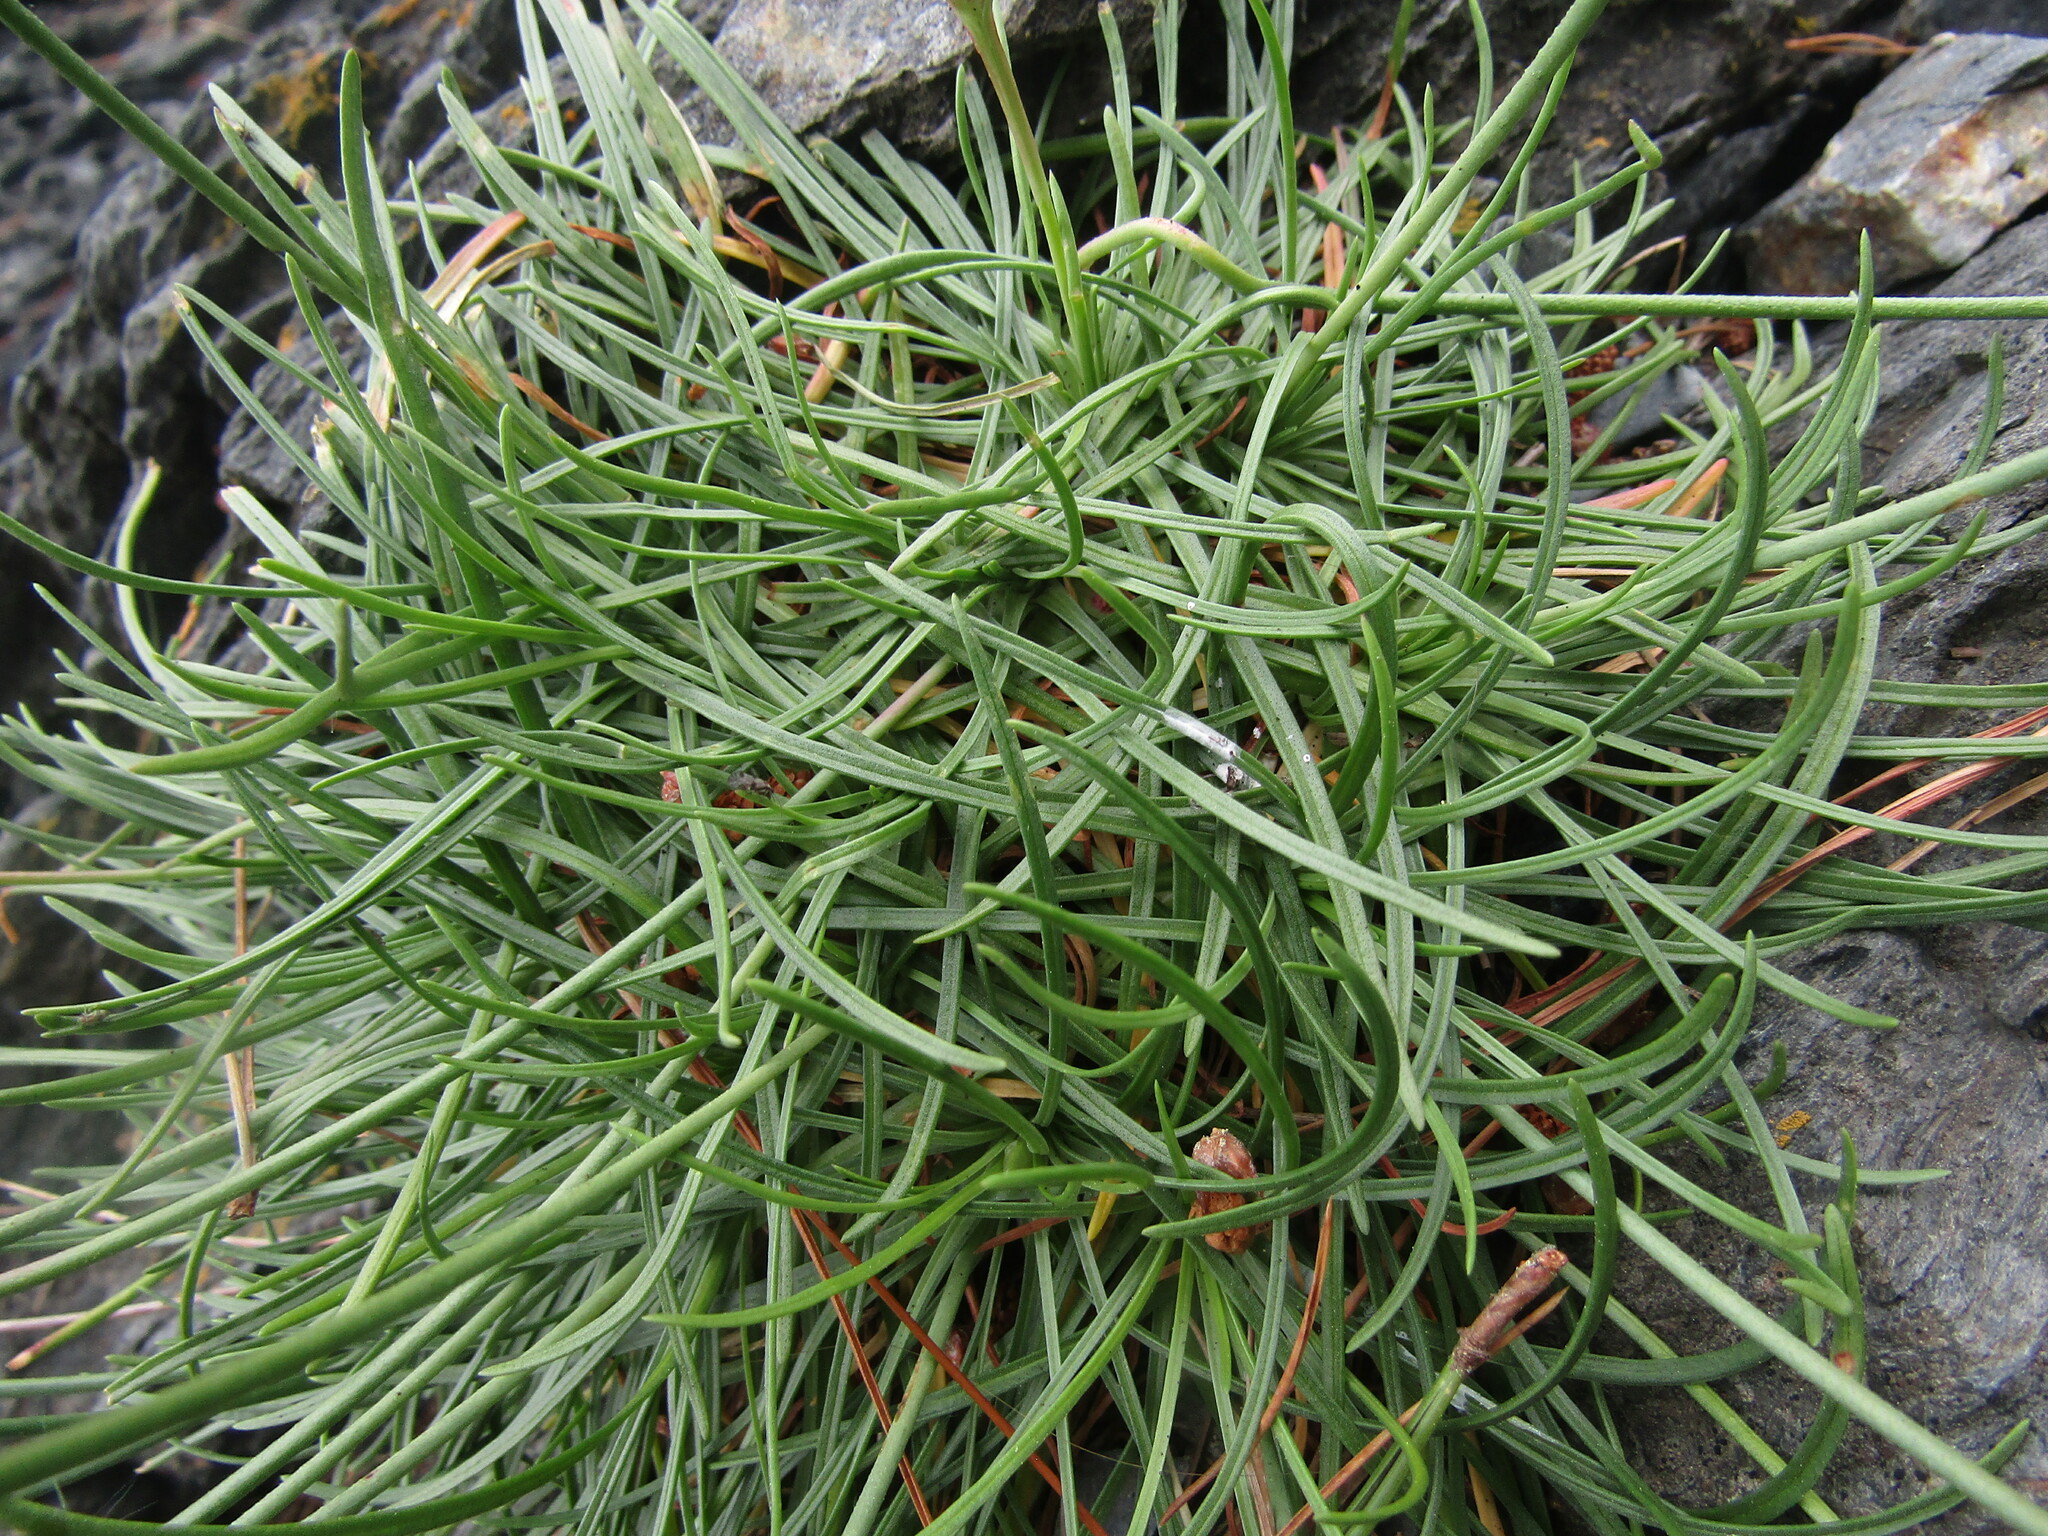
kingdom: Plantae
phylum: Tracheophyta
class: Magnoliopsida
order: Caryophyllales
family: Plumbaginaceae
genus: Armeria
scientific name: Armeria curvifolia
